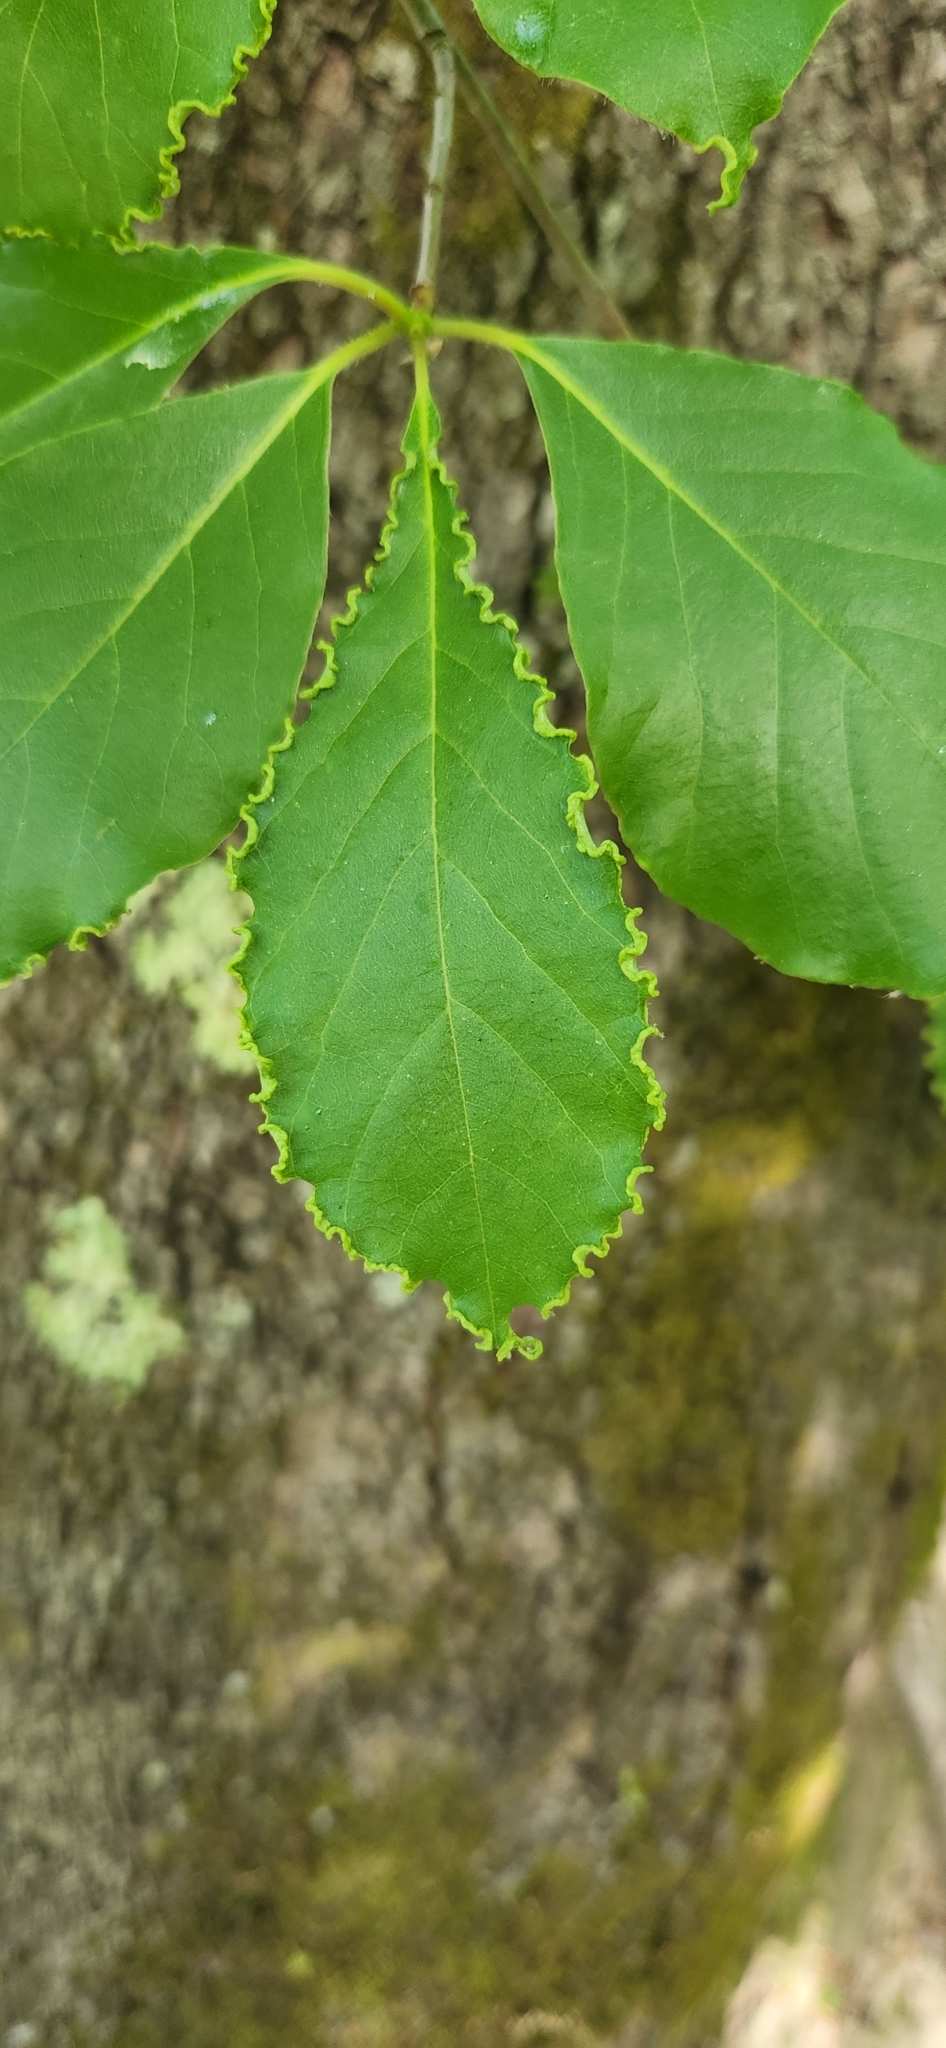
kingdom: Animalia
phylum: Arthropoda
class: Arachnida
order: Trombidiformes
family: Eriophyidae
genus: Aceria
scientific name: Aceria
